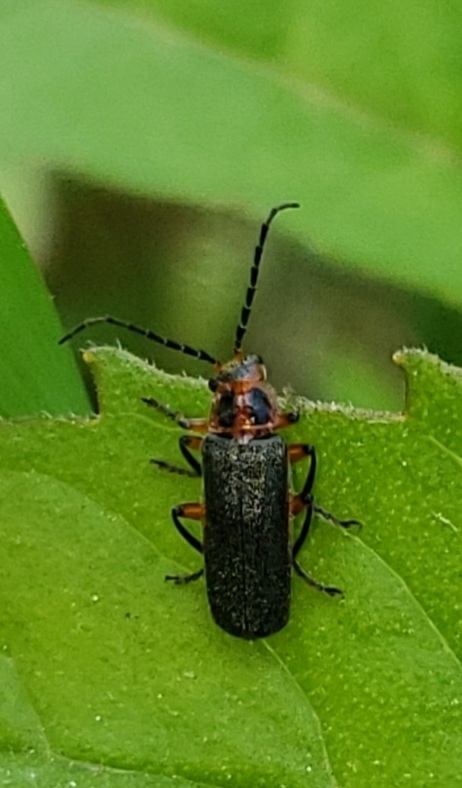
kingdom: Animalia
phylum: Arthropoda
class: Insecta
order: Coleoptera
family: Cantharidae
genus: Atalantycha
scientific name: Atalantycha bilineata
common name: Two-lined leatherwing
